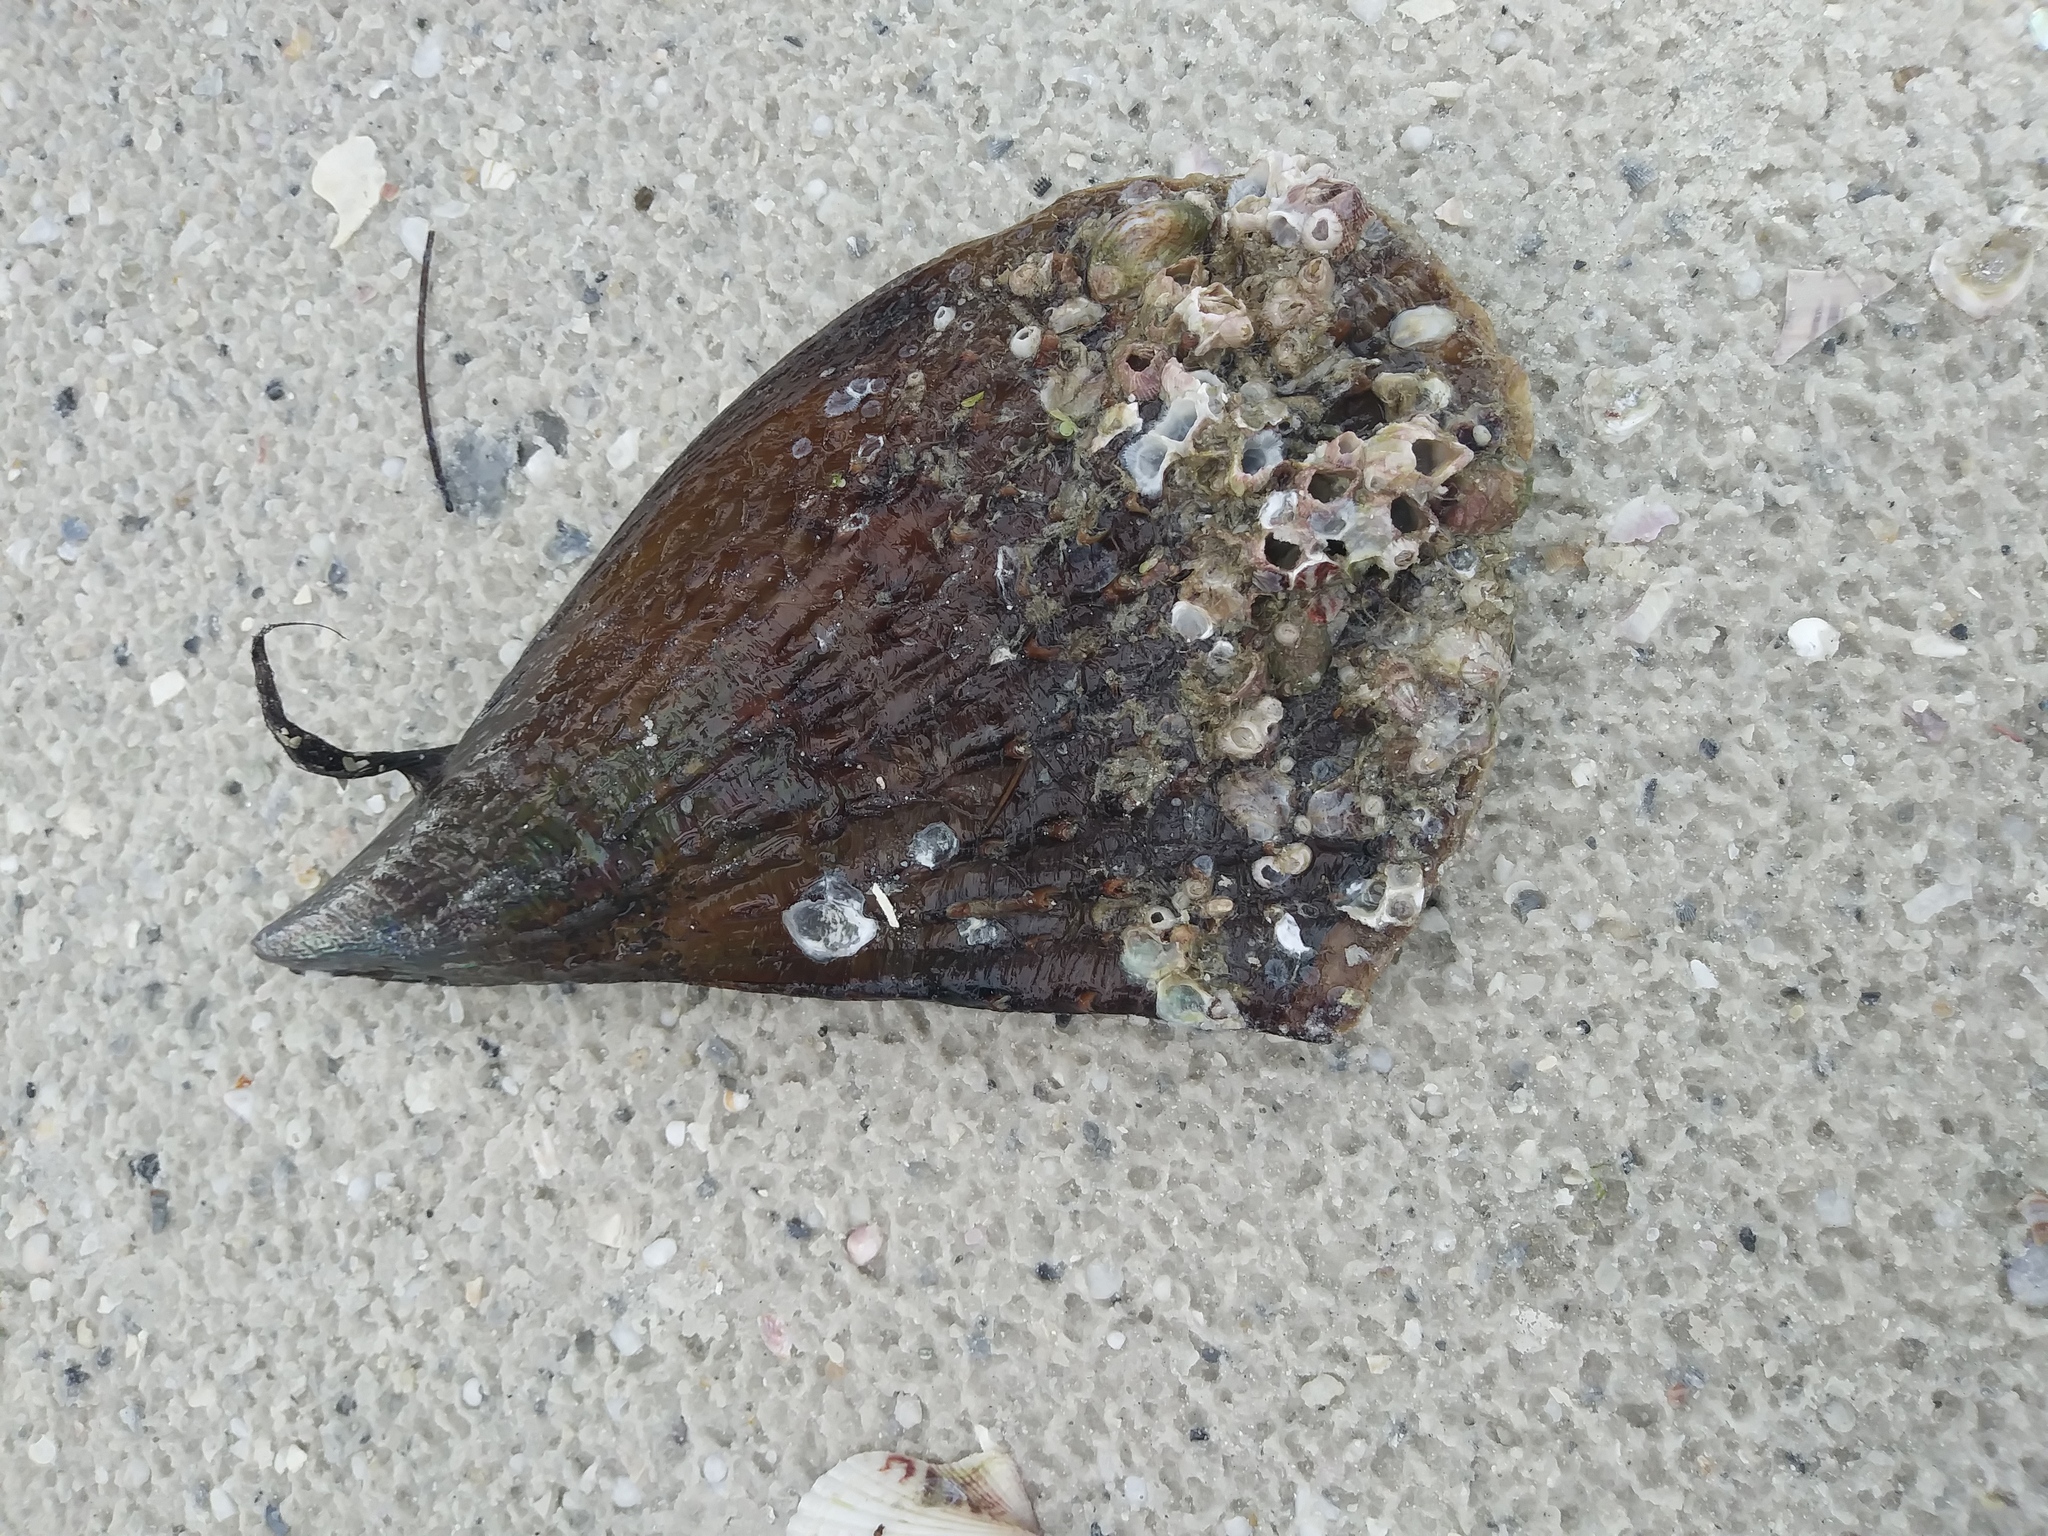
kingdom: Animalia
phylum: Mollusca
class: Bivalvia
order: Ostreida
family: Pinnidae
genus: Atrina
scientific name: Atrina rigida
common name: Stiff penshell
